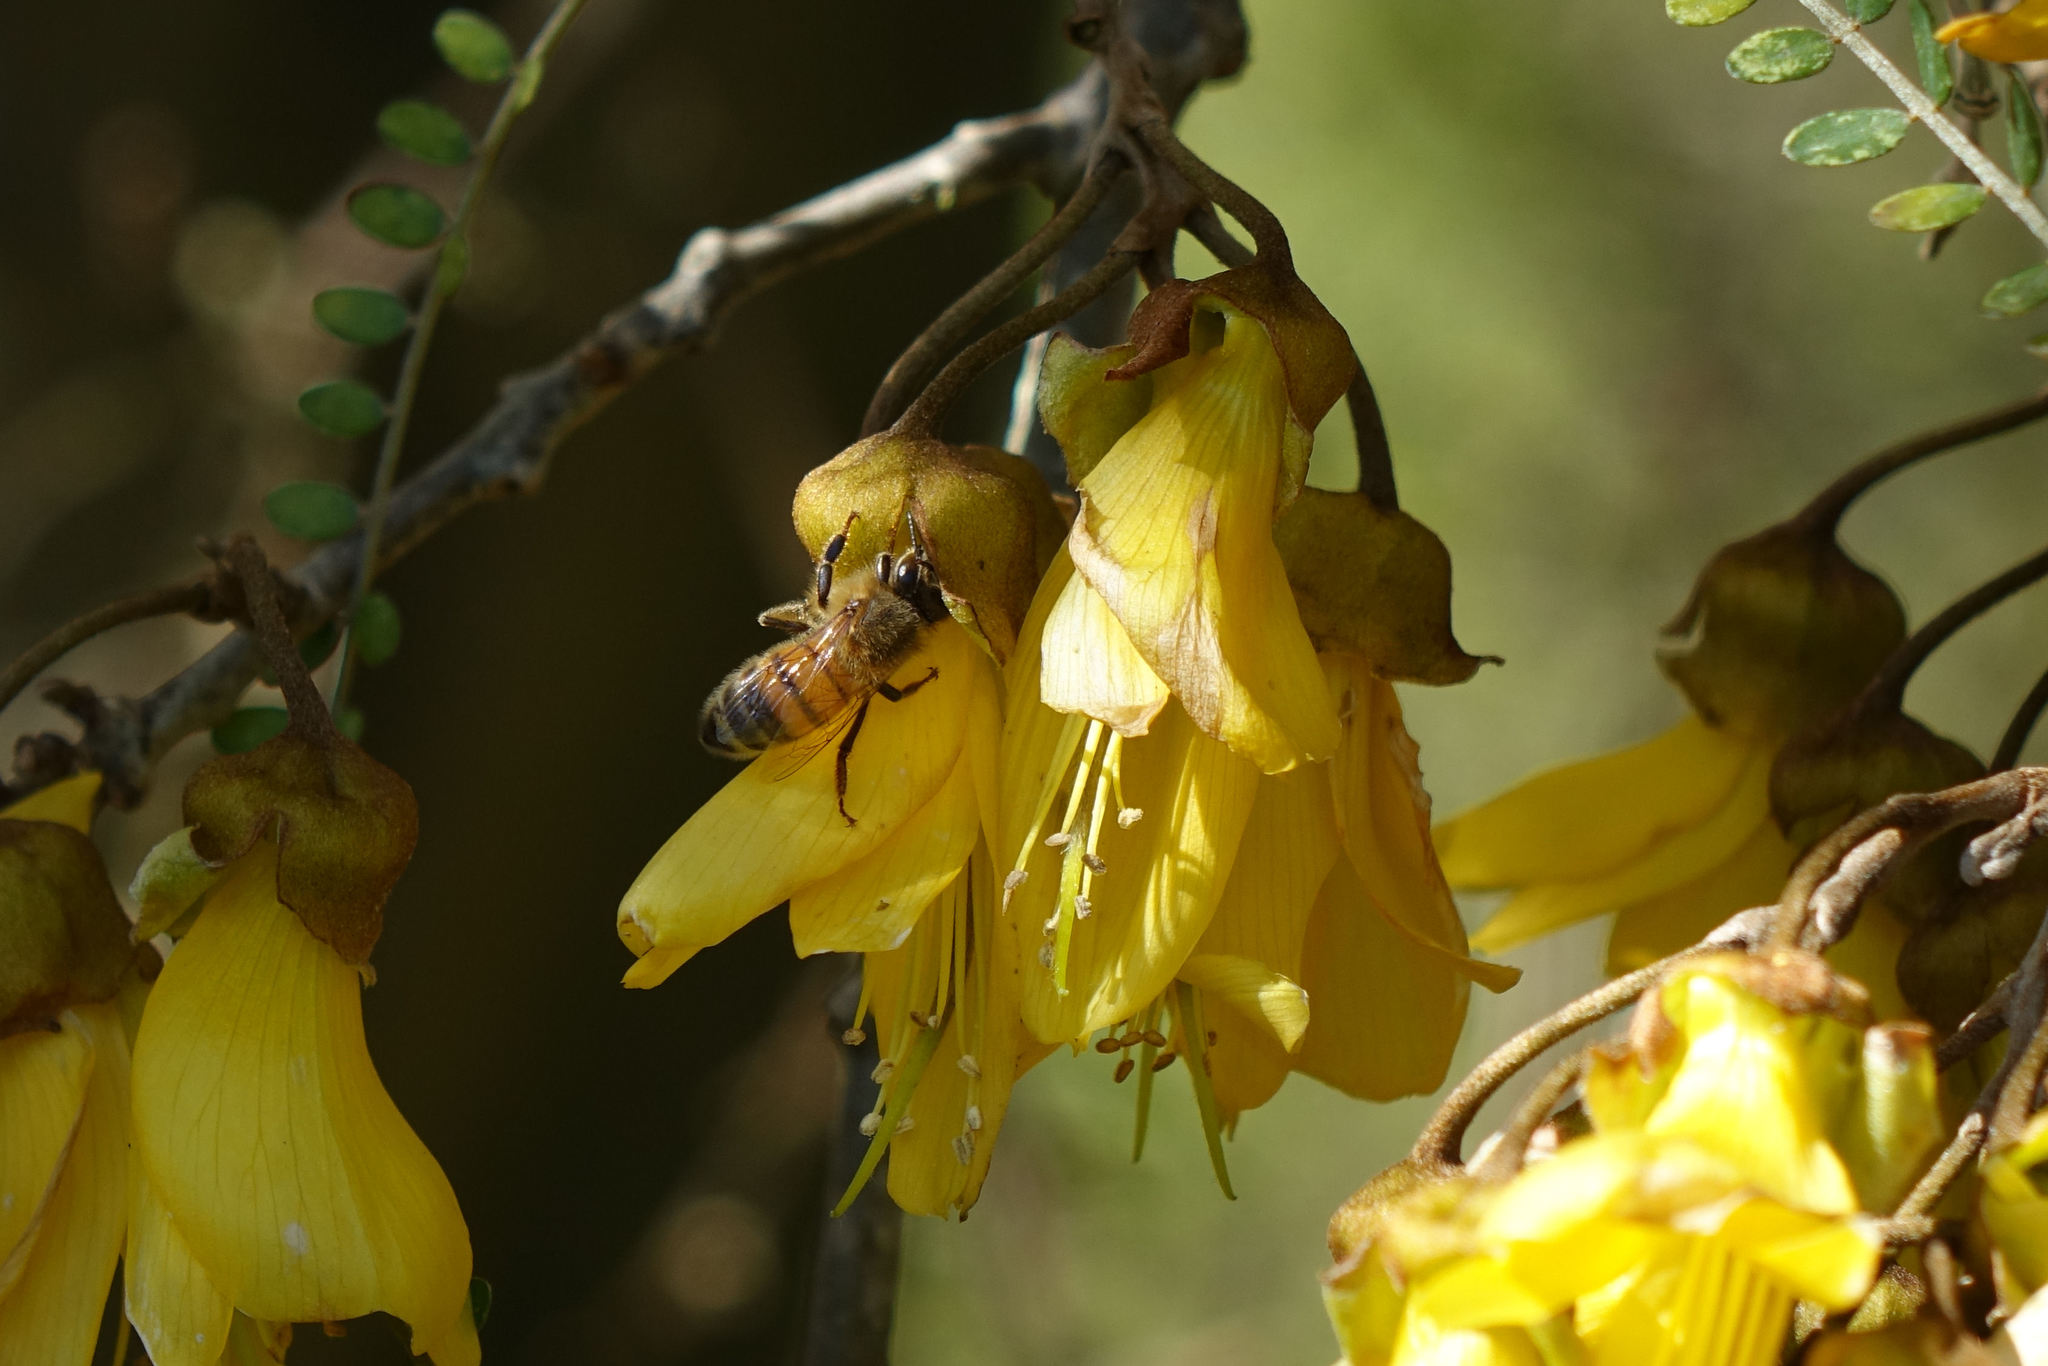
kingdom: Animalia
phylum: Arthropoda
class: Insecta
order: Hymenoptera
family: Apidae
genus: Apis
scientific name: Apis mellifera
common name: Honey bee
